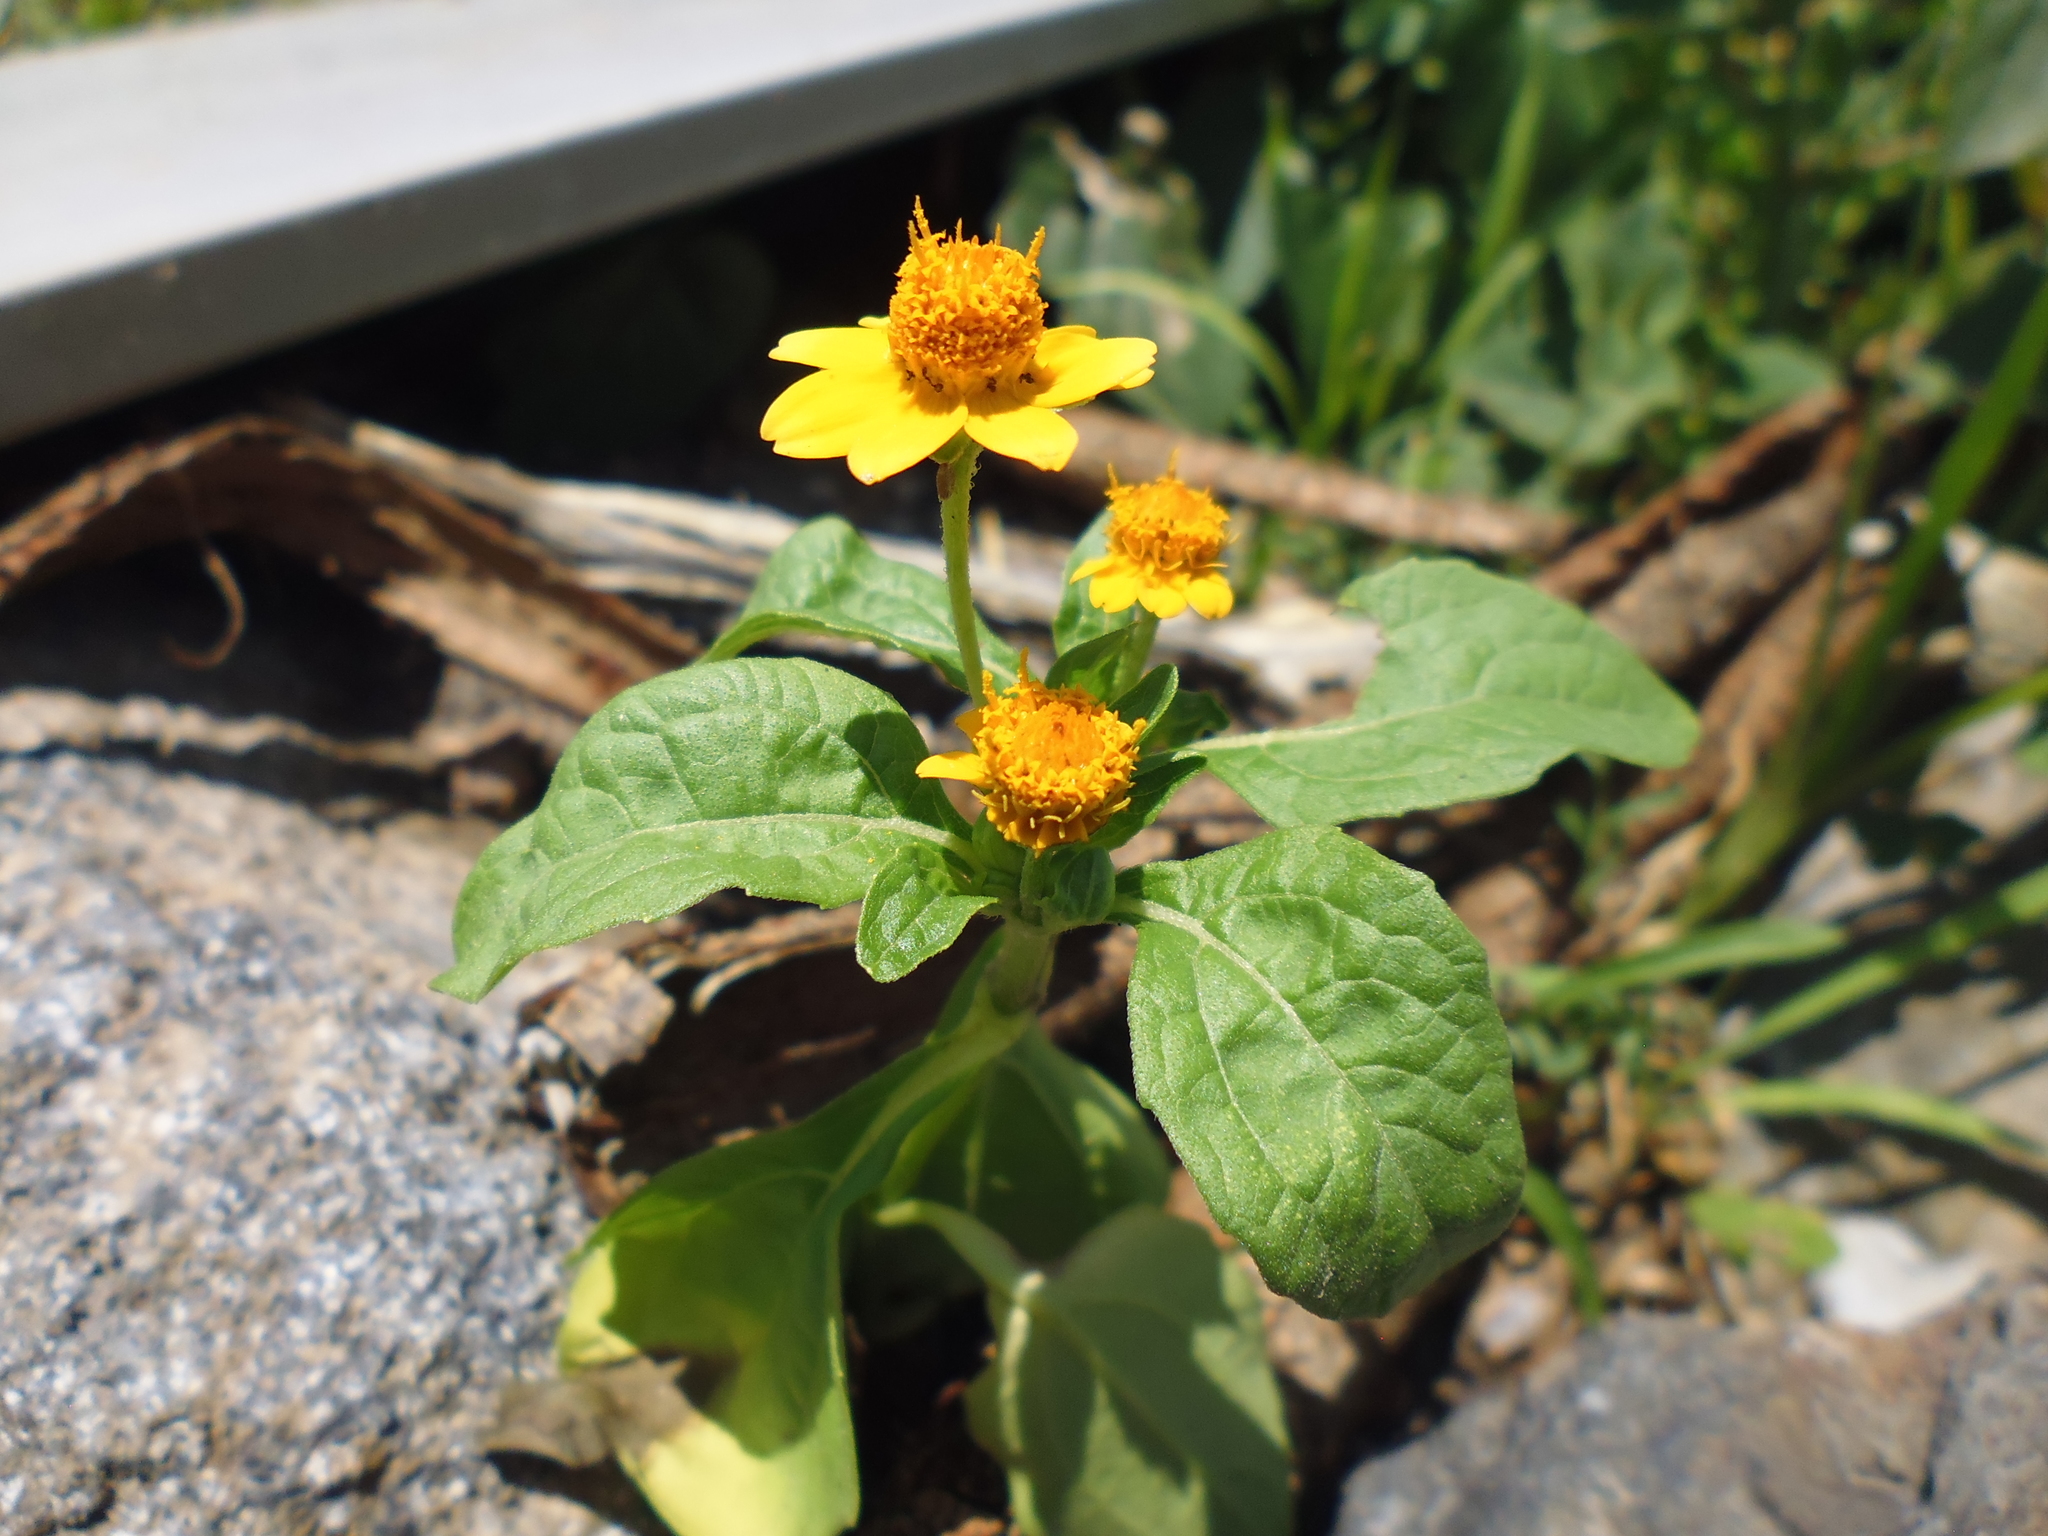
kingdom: Plantae
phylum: Tracheophyta
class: Magnoliopsida
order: Asterales
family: Asteraceae
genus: Heliopsis
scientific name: Heliopsis annua
